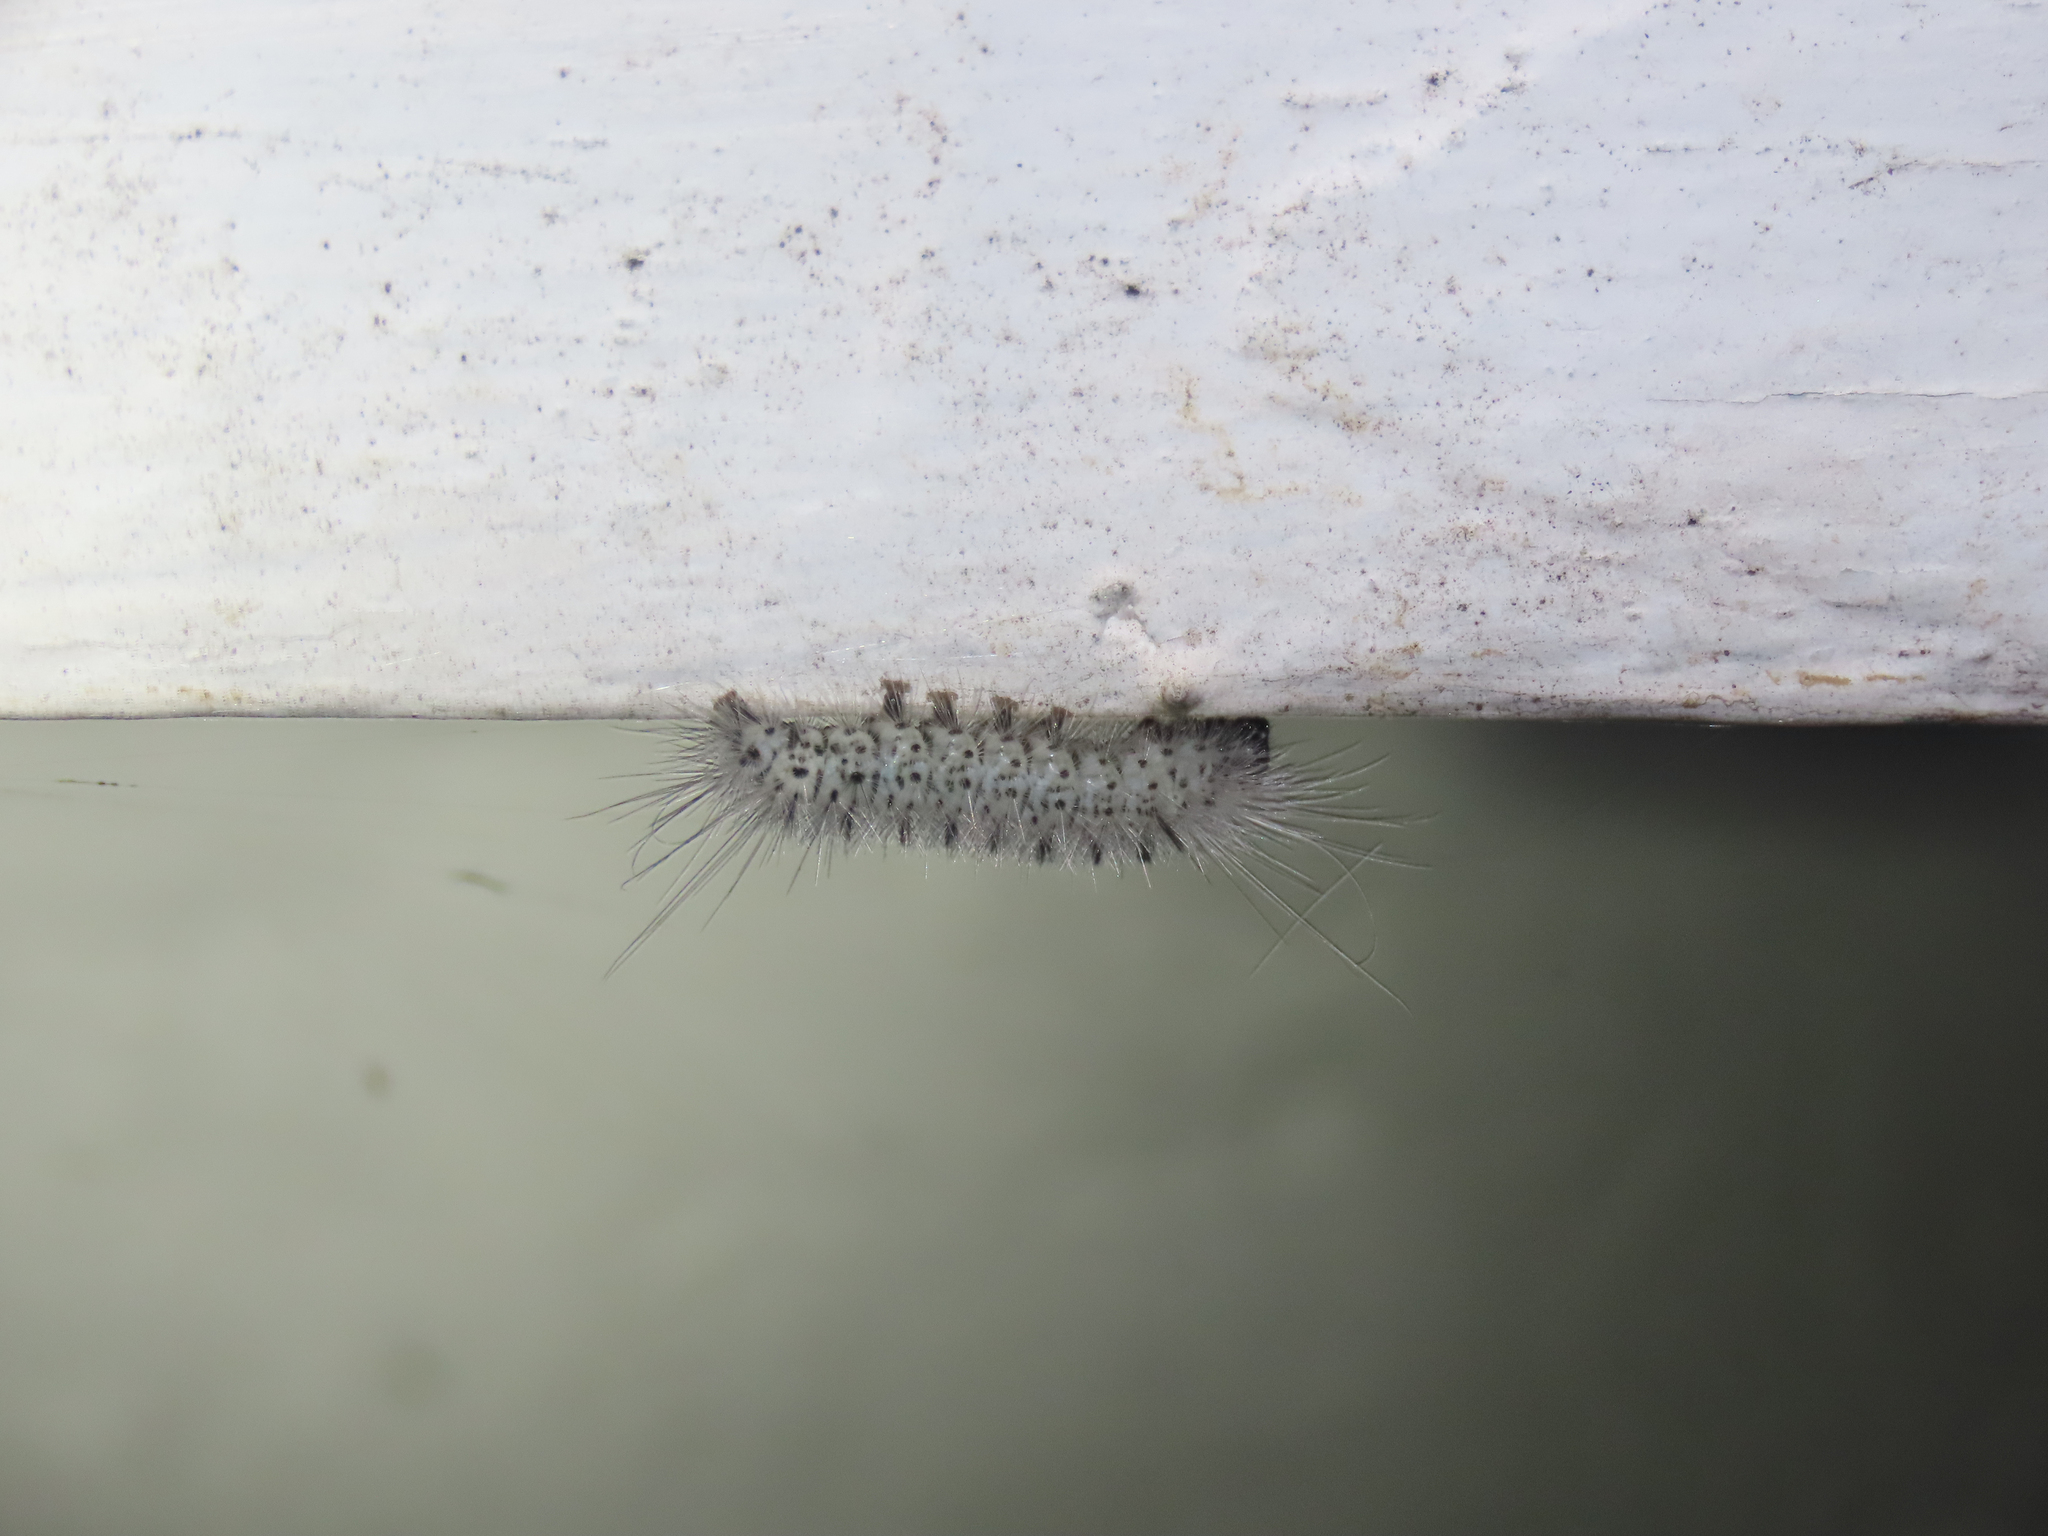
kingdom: Animalia
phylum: Arthropoda
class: Insecta
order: Lepidoptera
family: Erebidae
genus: Lophocampa
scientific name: Lophocampa caryae
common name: Hickory tussock moth
